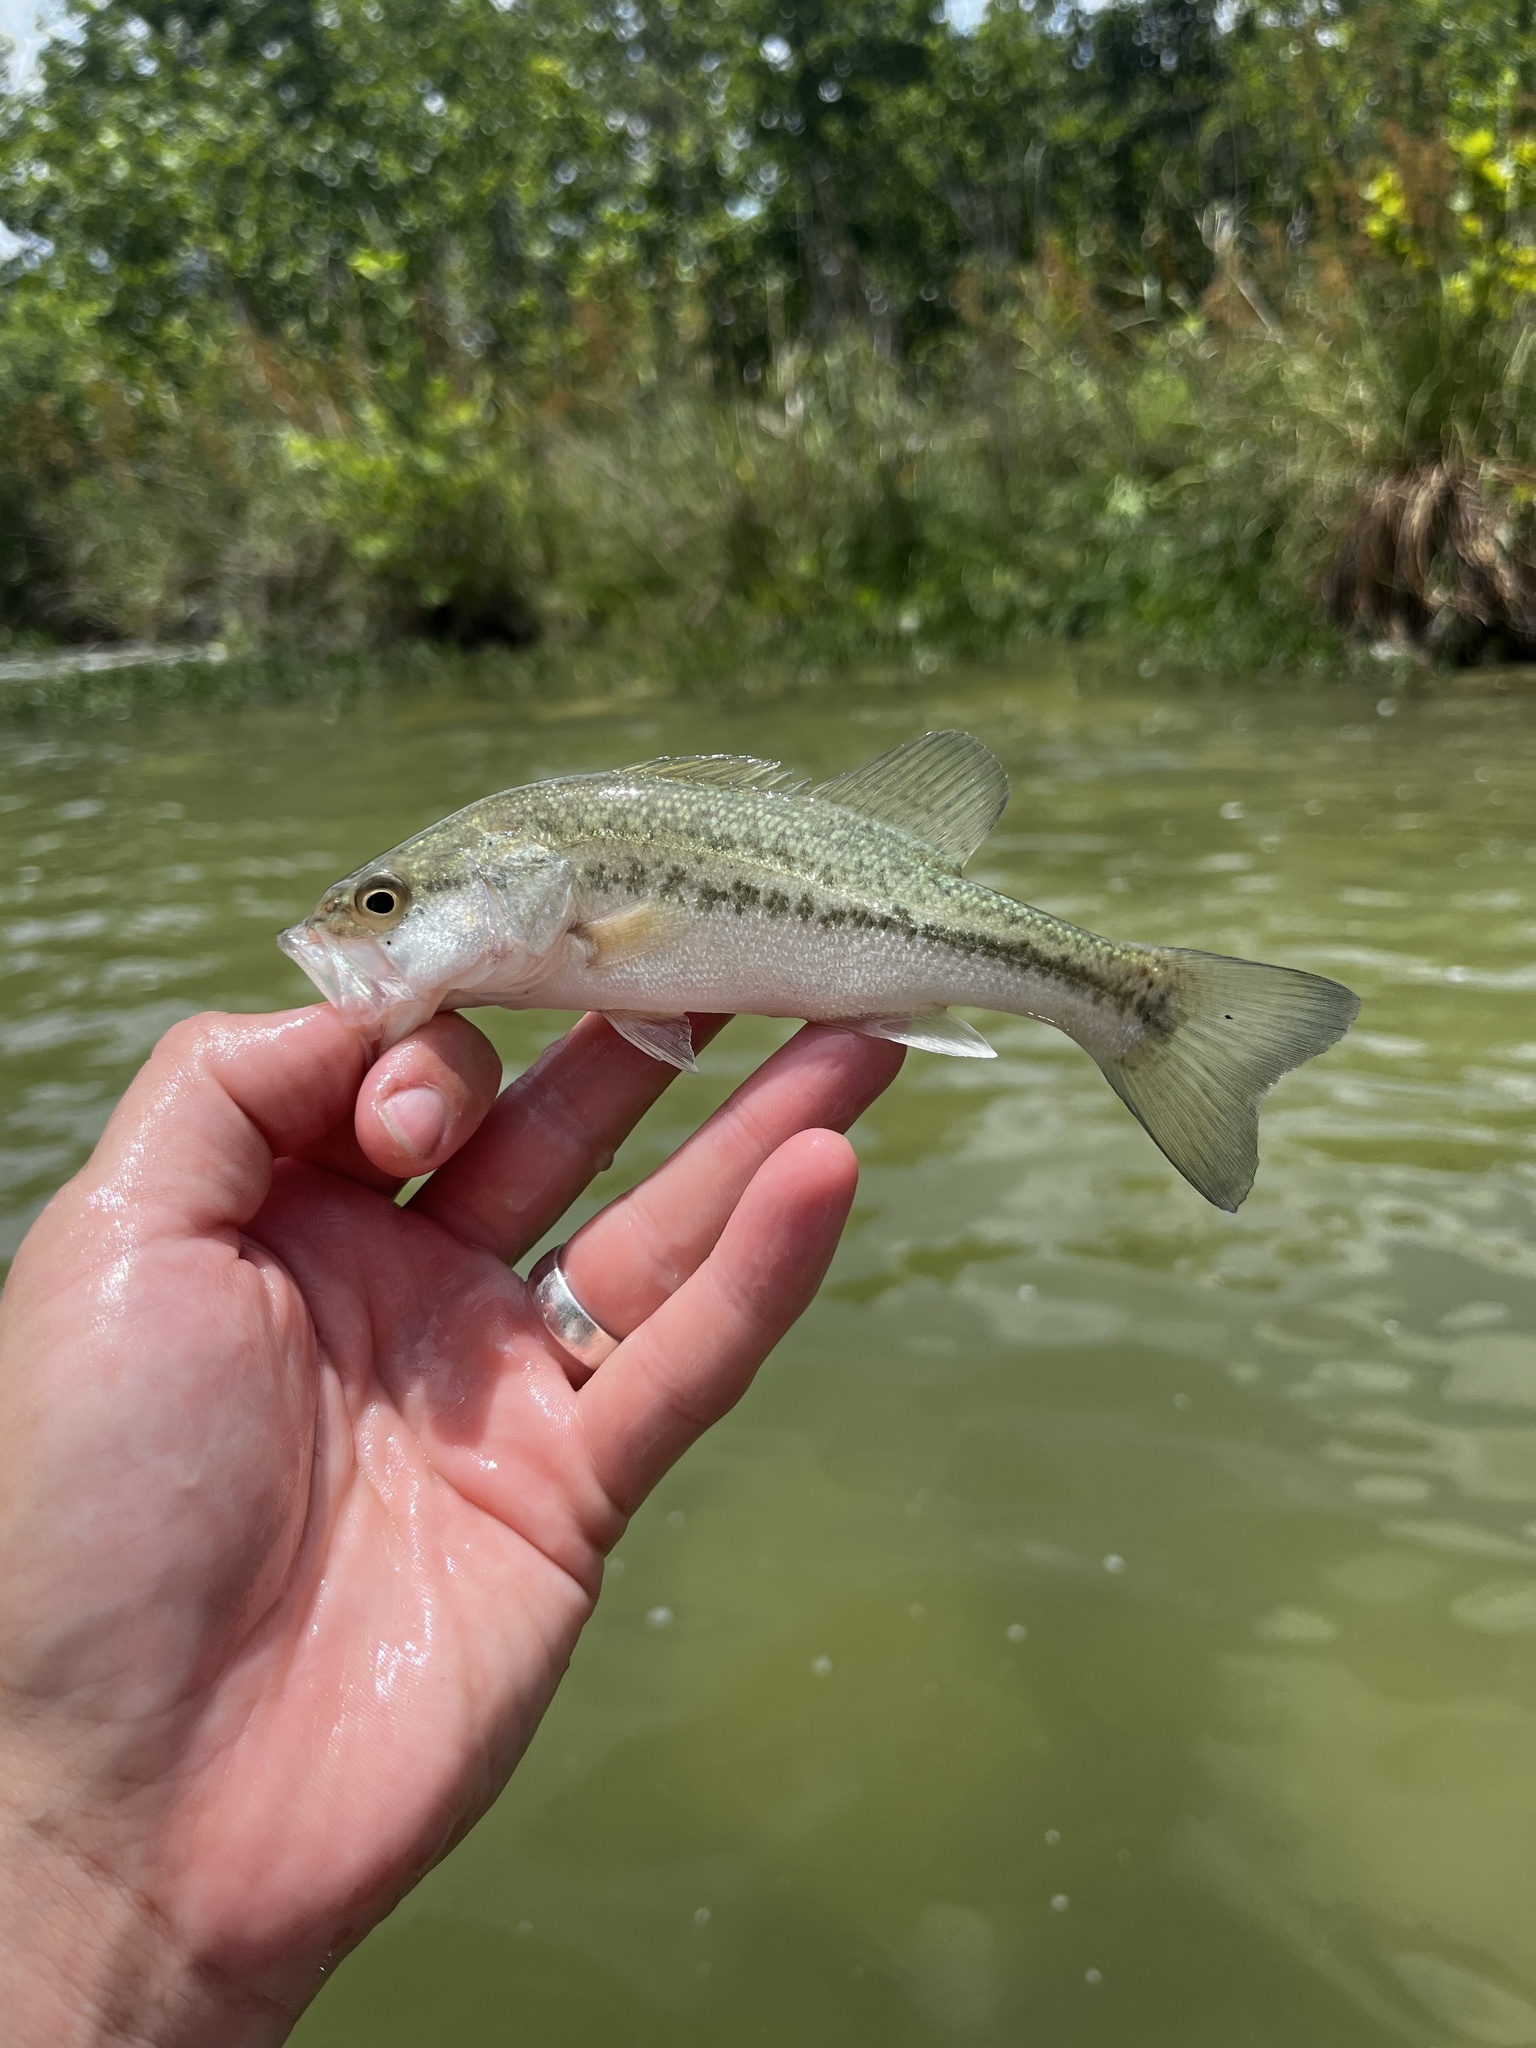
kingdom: Animalia
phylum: Chordata
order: Perciformes
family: Centrarchidae
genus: Micropterus
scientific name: Micropterus
